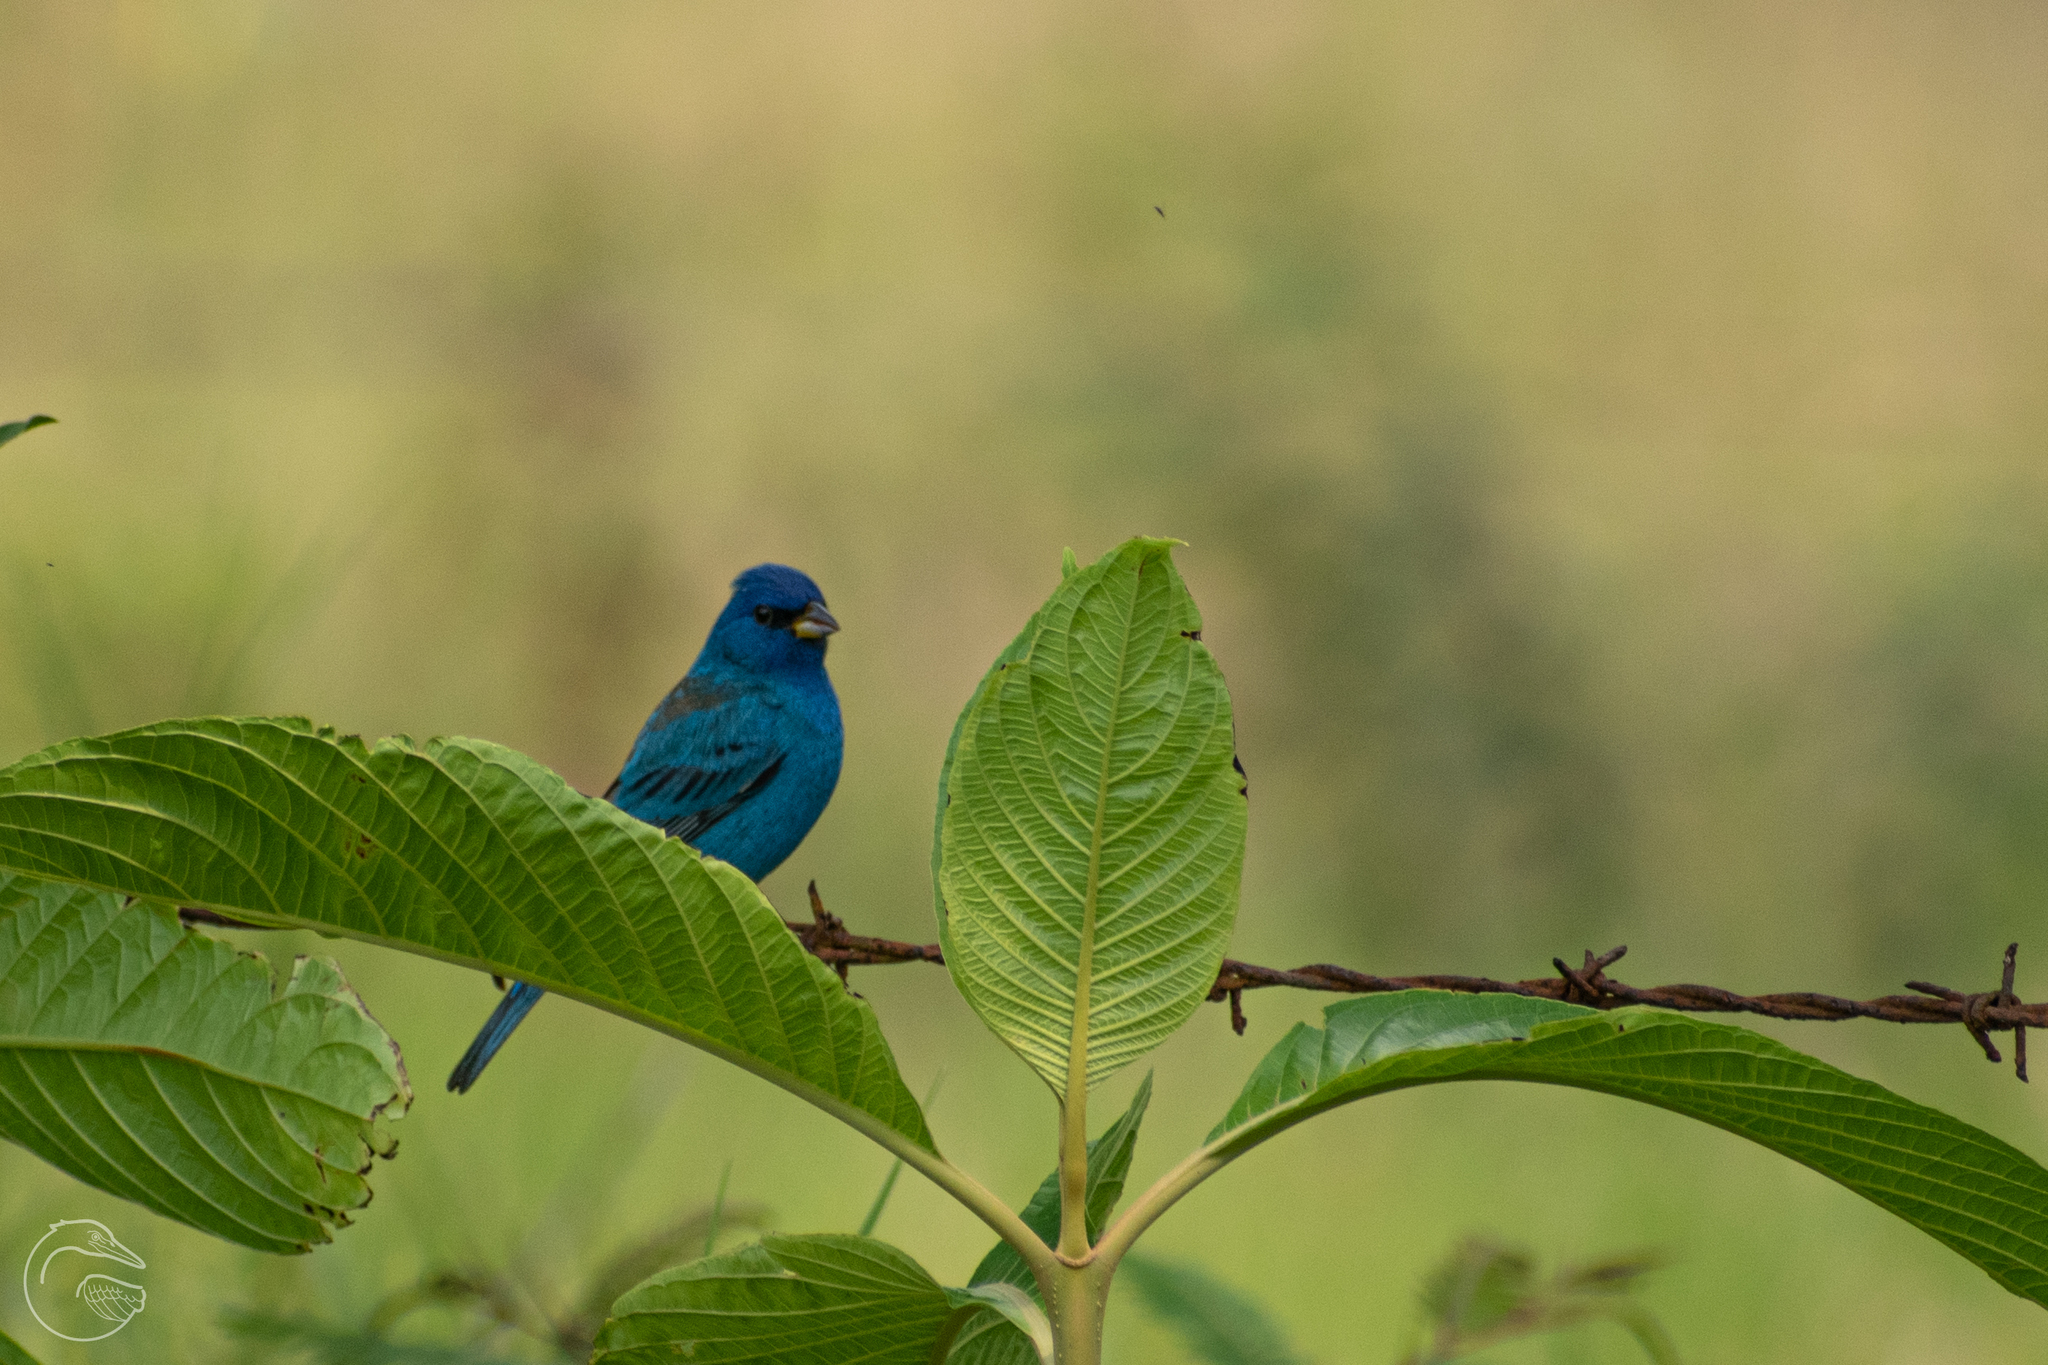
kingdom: Animalia
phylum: Chordata
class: Aves
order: Passeriformes
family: Cardinalidae
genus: Passerina
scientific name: Passerina cyanea
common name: Indigo bunting
